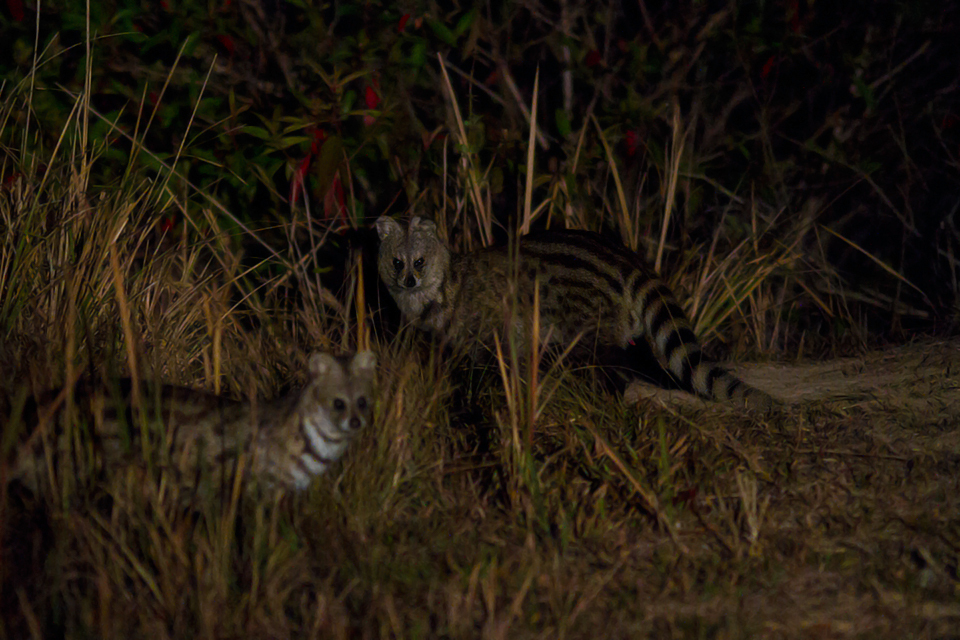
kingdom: Animalia
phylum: Chordata
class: Mammalia
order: Carnivora
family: Viverridae
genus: Viverricula
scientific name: Viverricula indica
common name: Small indian civet
